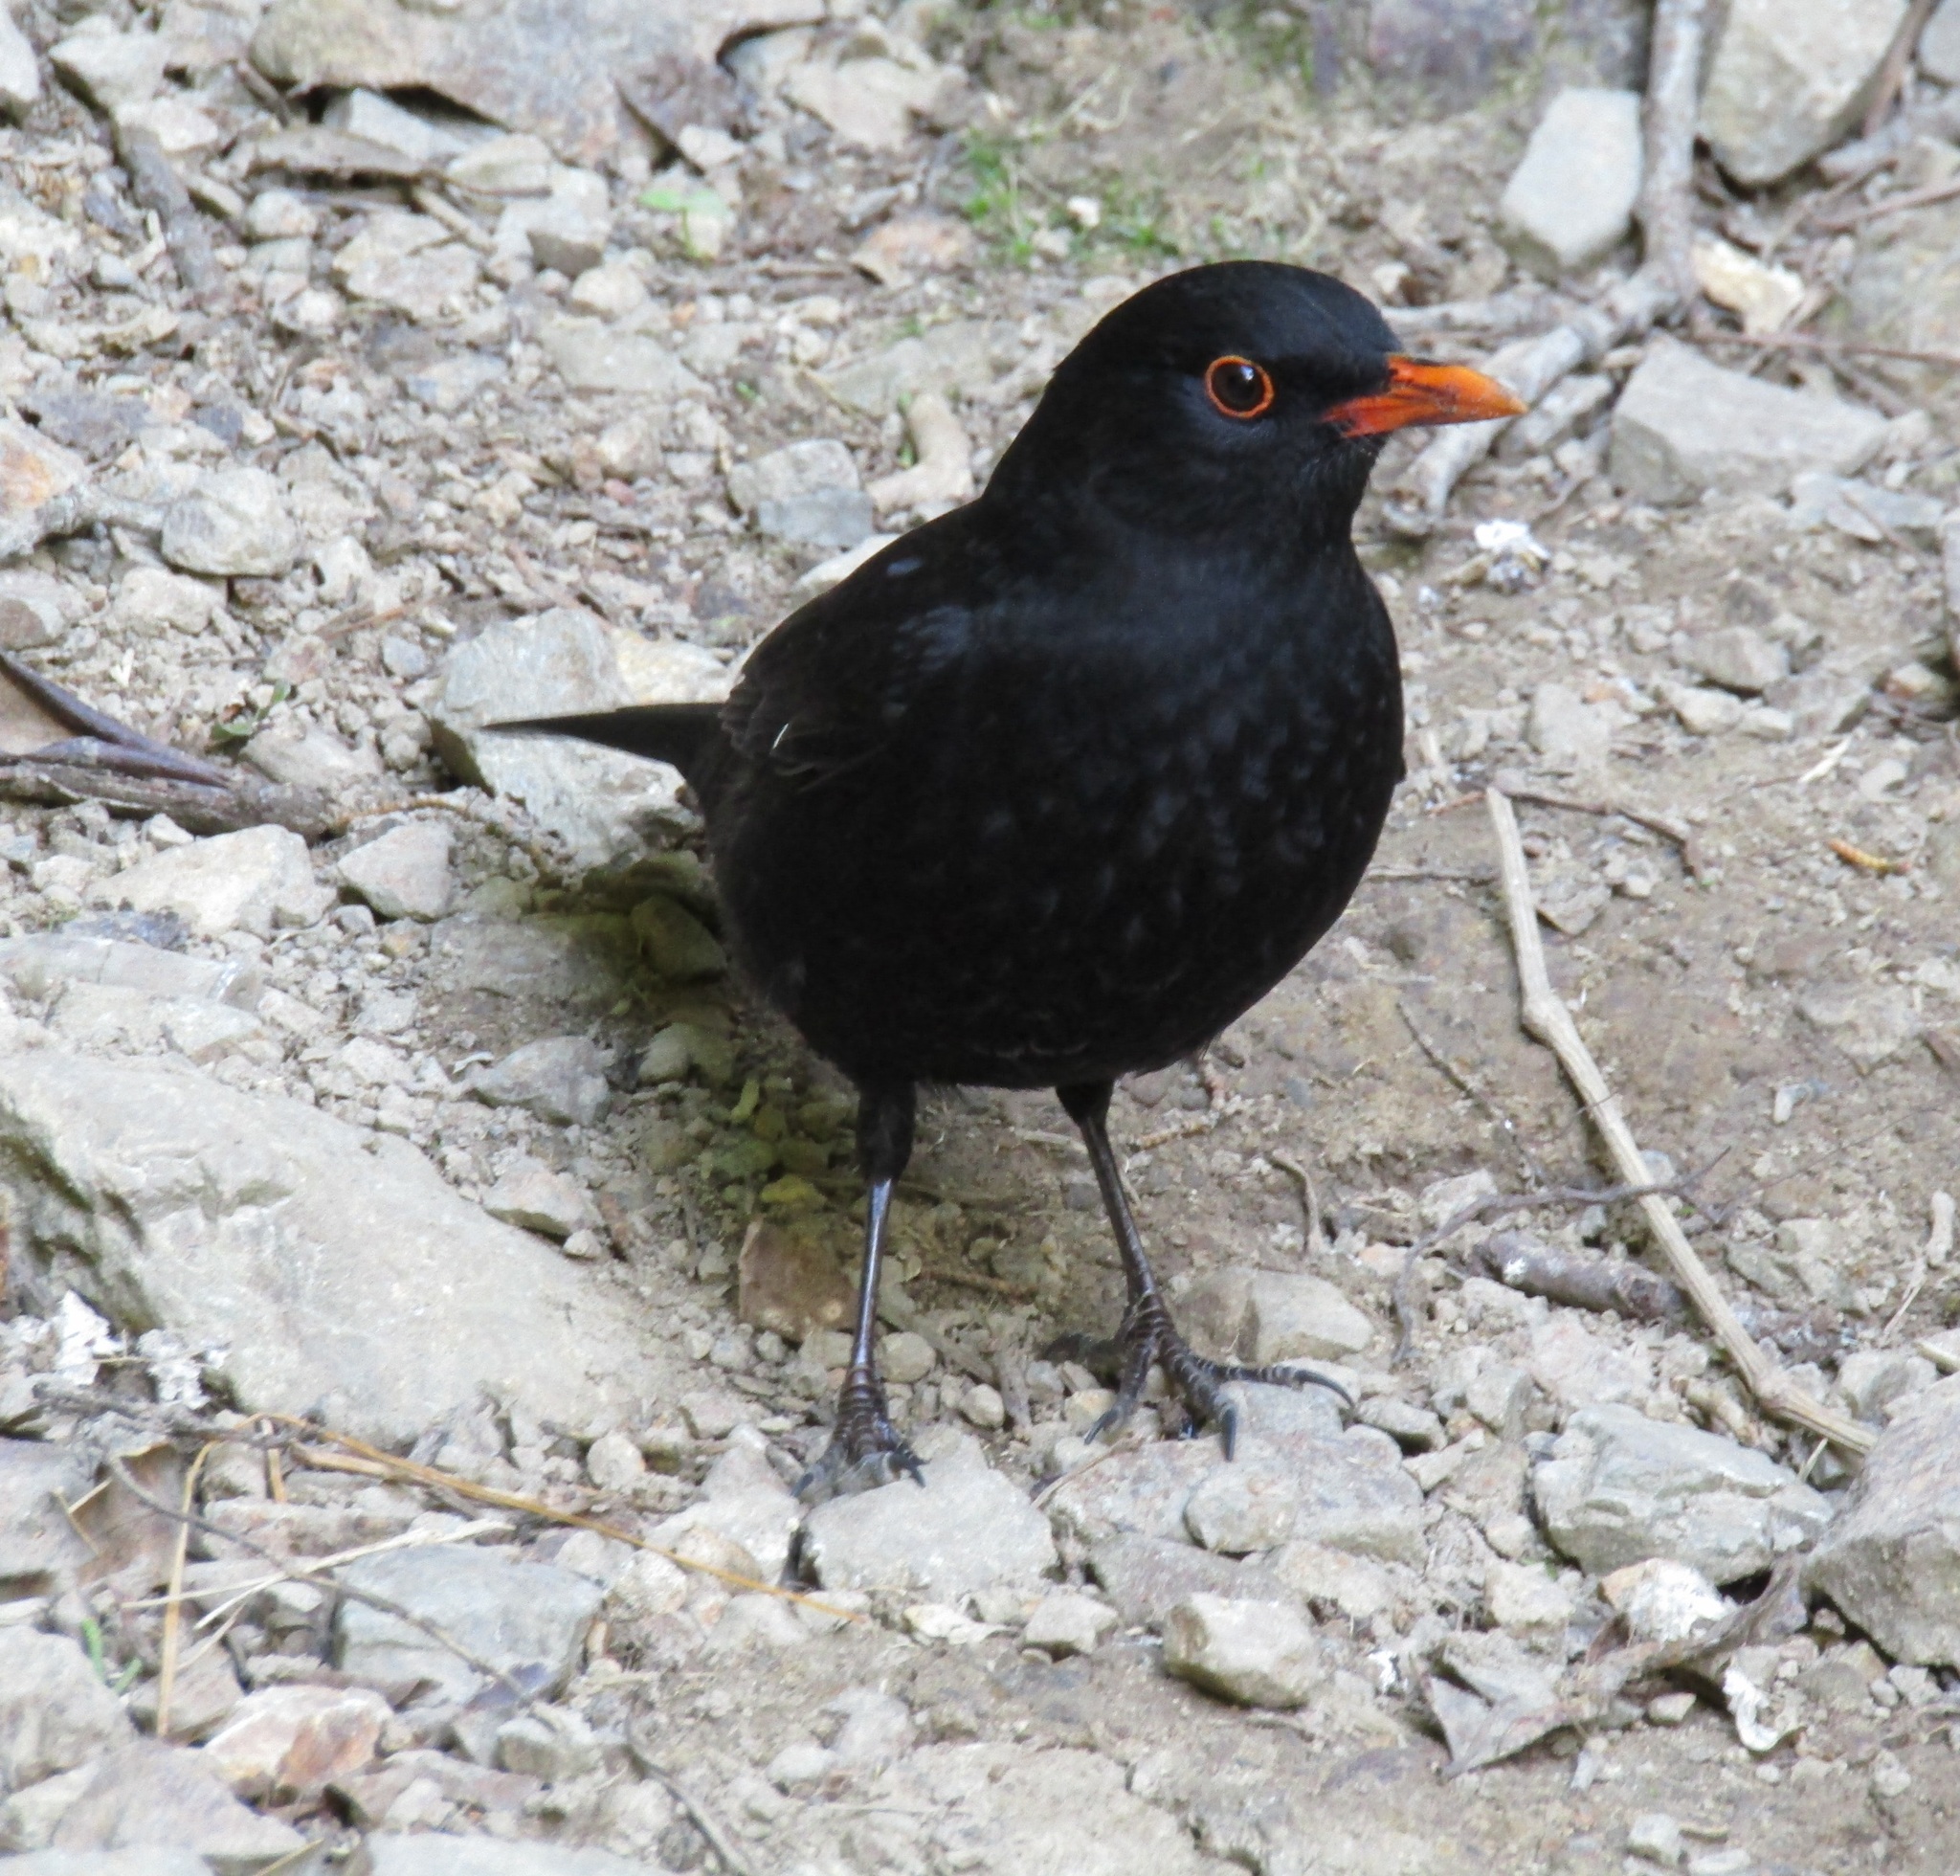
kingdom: Animalia
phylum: Chordata
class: Aves
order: Passeriformes
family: Turdidae
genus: Turdus
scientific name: Turdus merula
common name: Common blackbird
